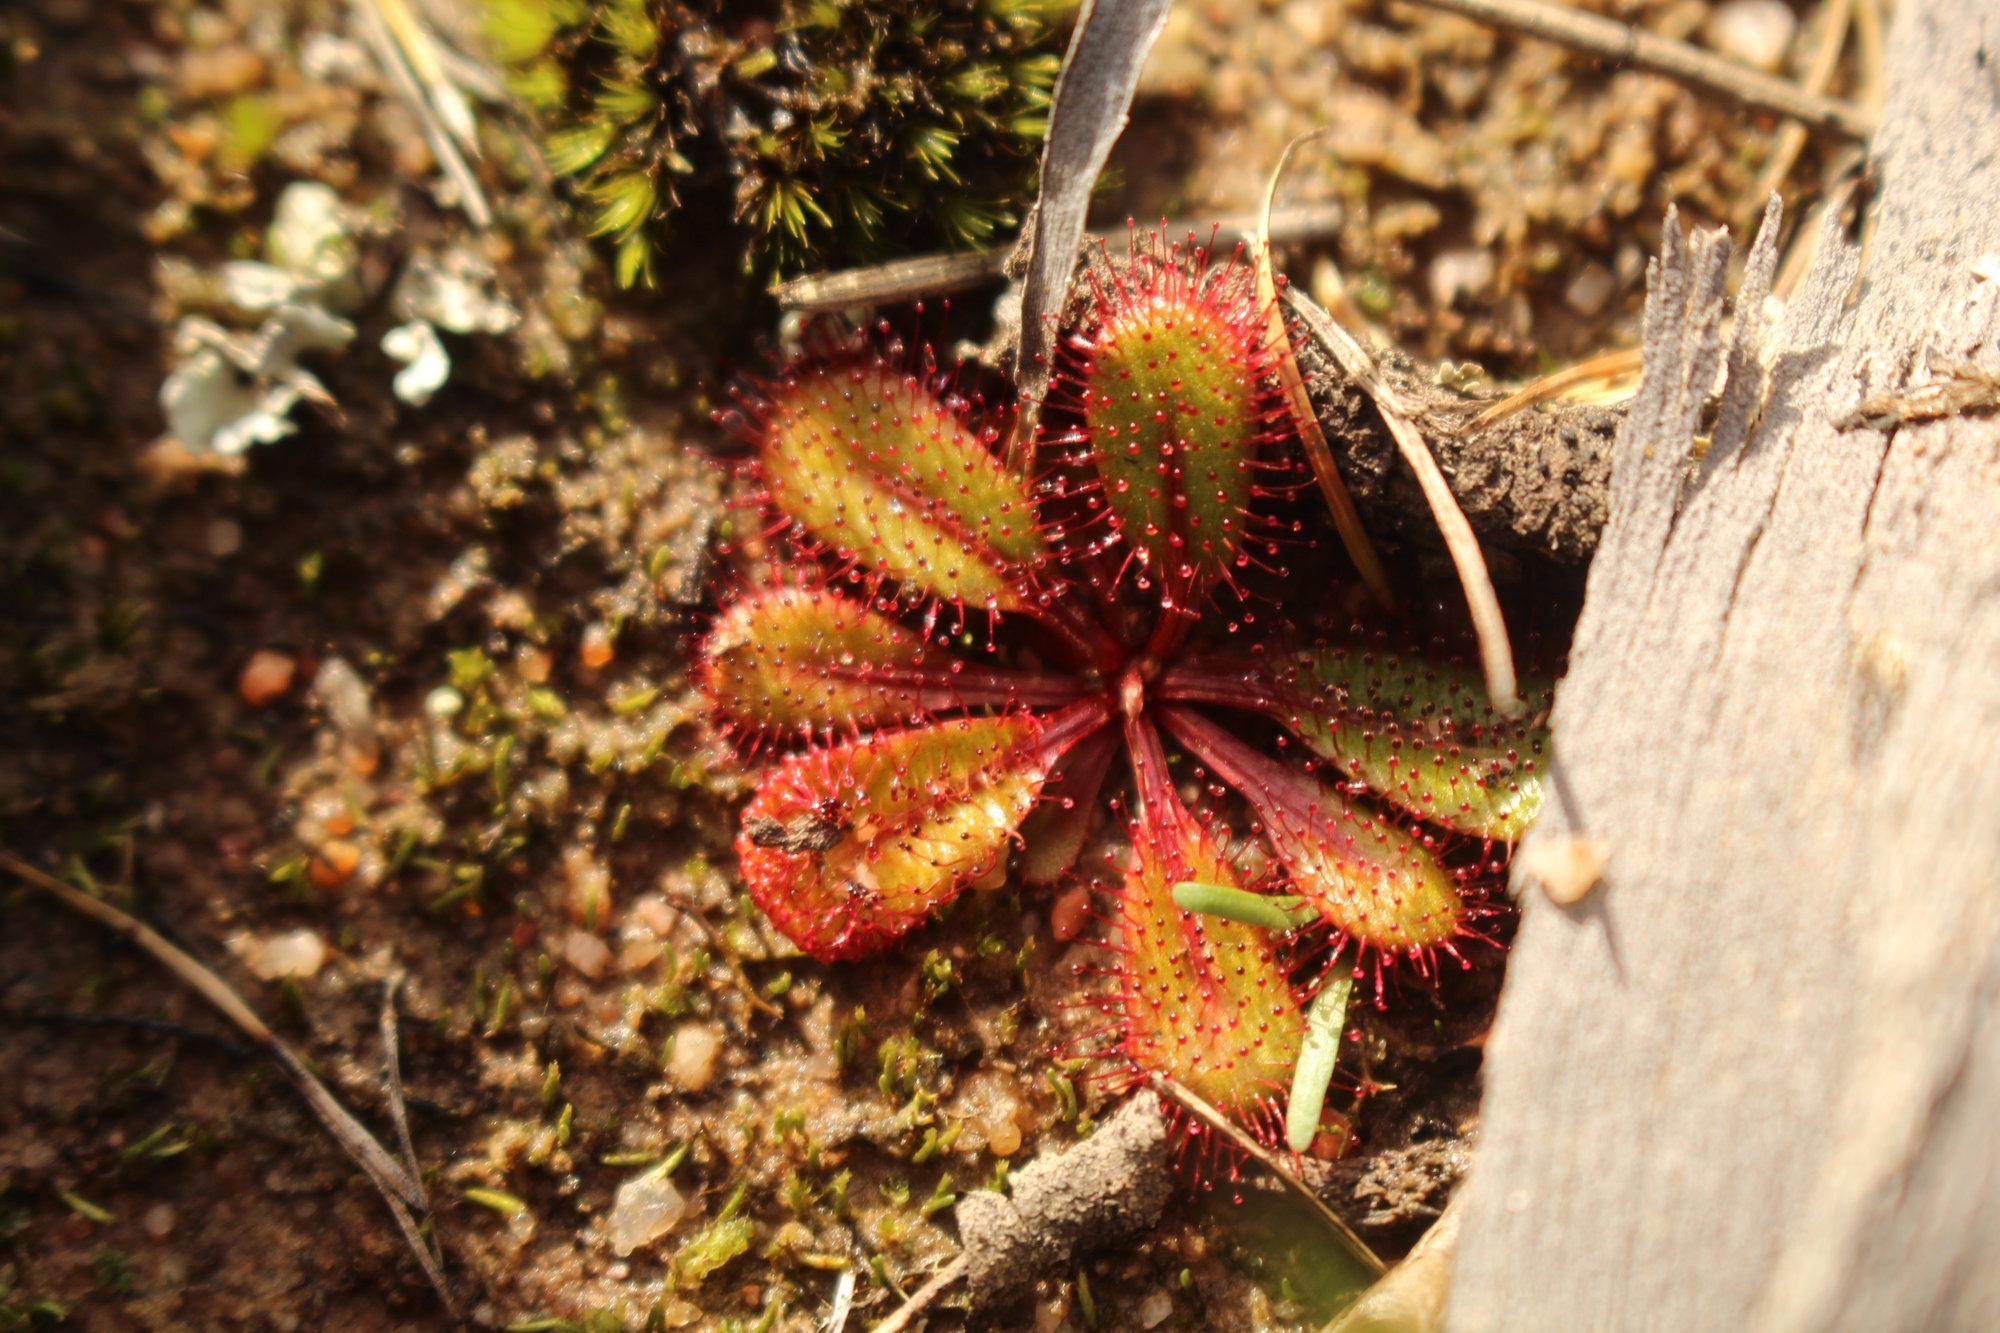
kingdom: Plantae
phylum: Tracheophyta
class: Magnoliopsida
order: Caryophyllales
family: Droseraceae
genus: Drosera
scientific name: Drosera tubaestylis
